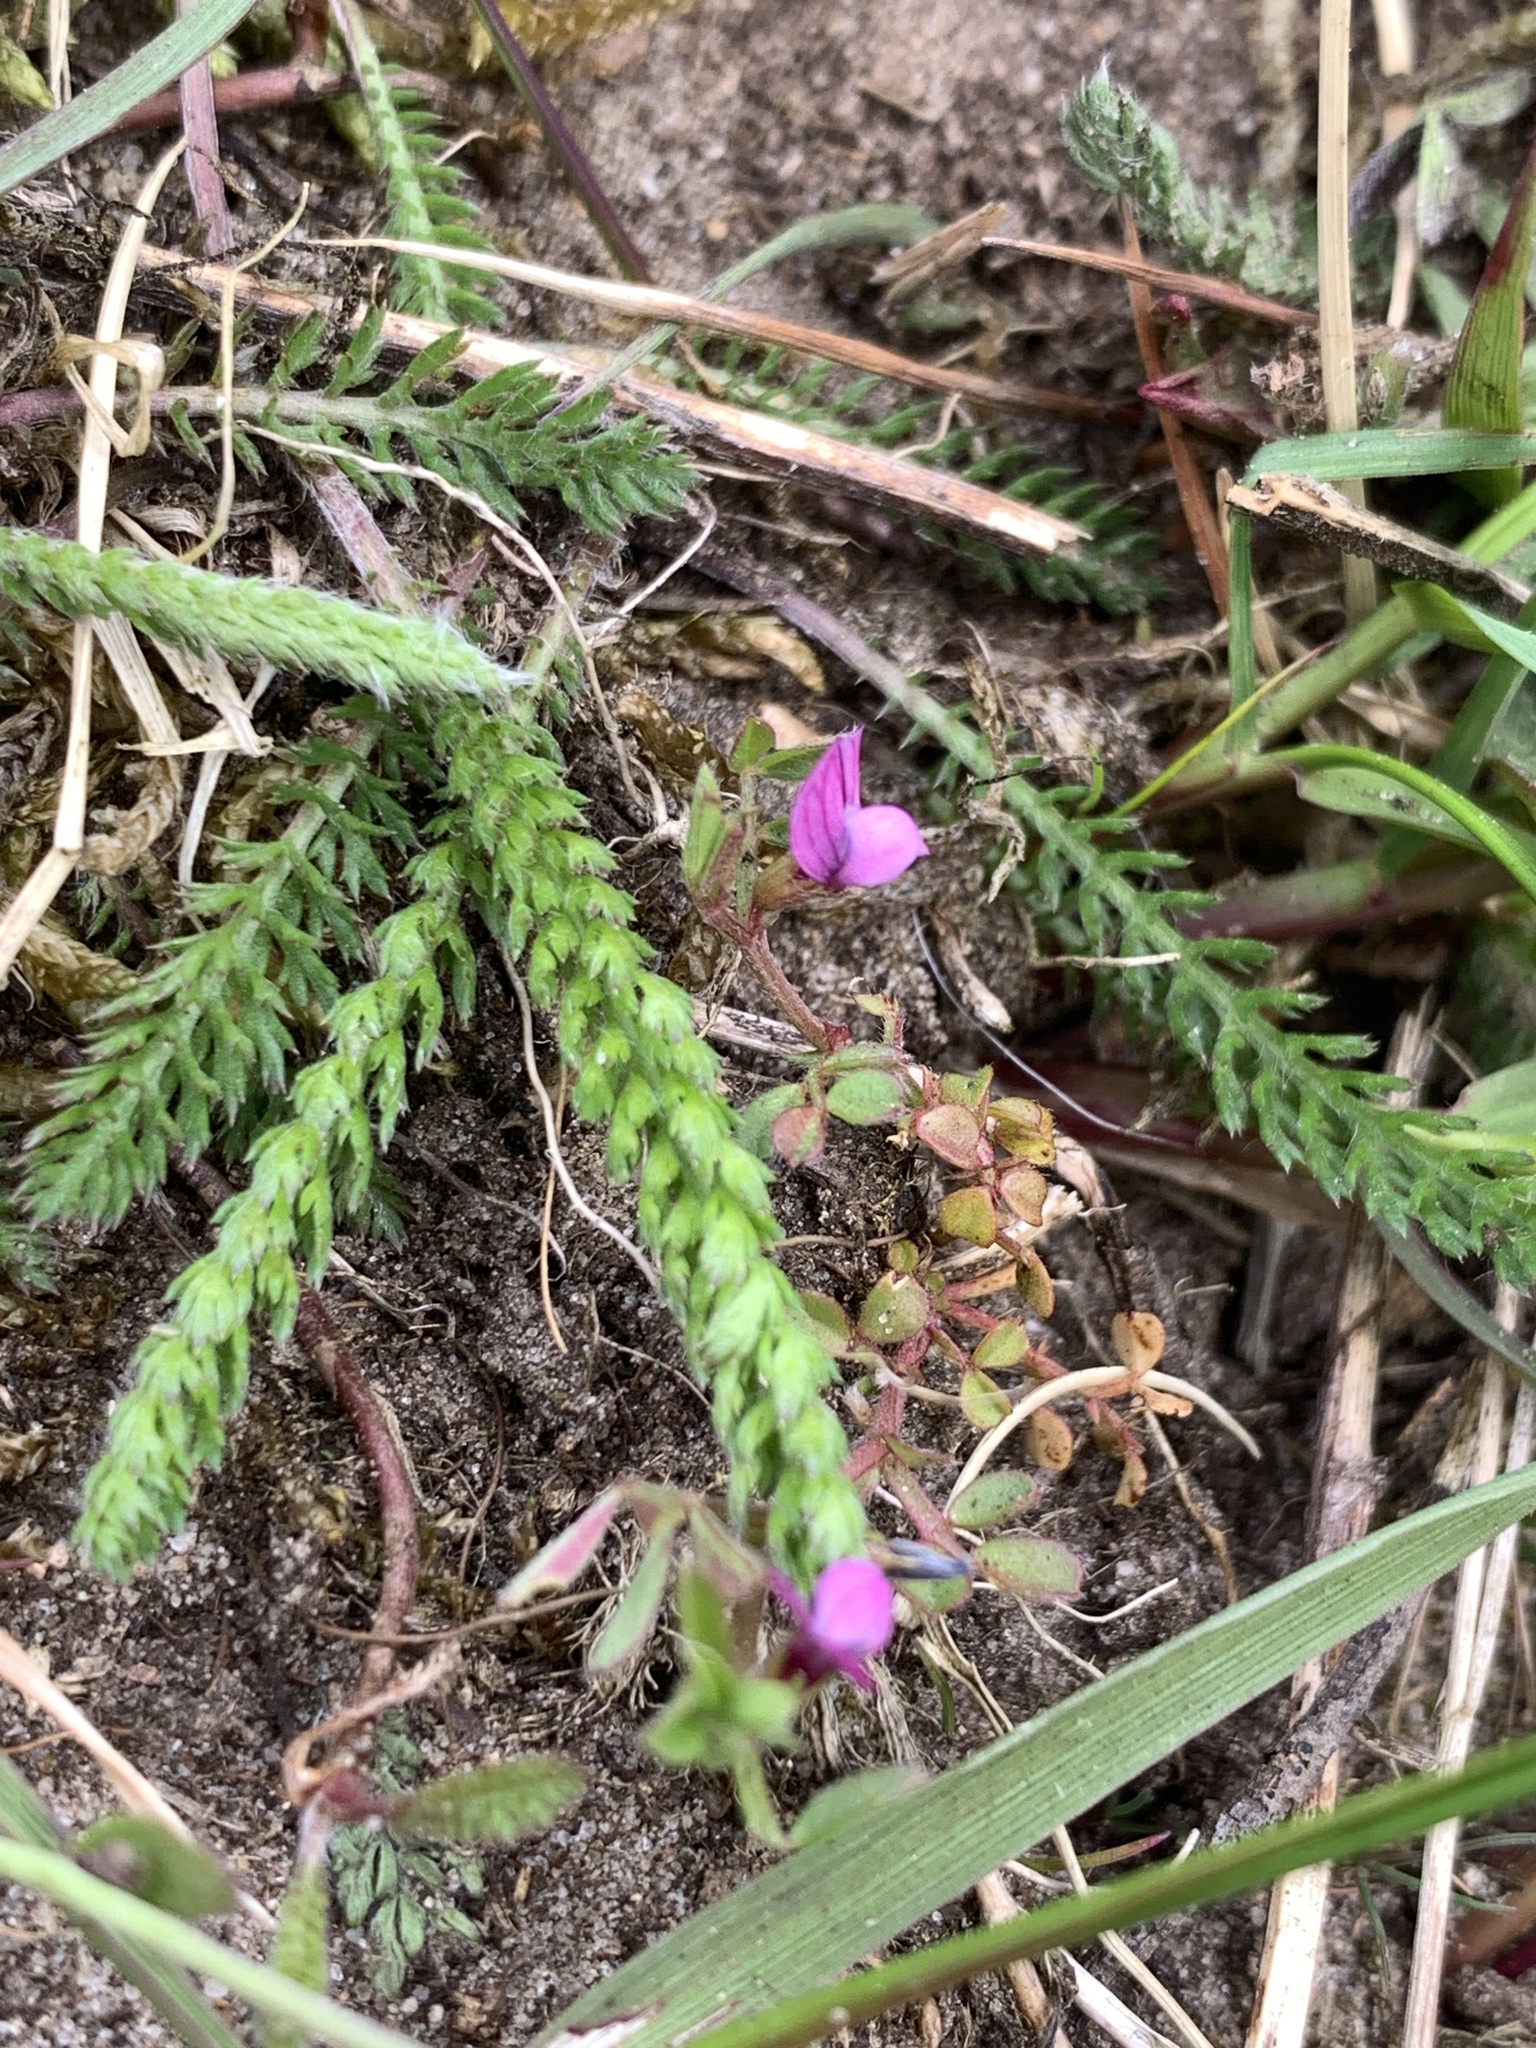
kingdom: Plantae
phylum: Tracheophyta
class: Magnoliopsida
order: Fabales
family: Fabaceae
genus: Vicia
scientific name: Vicia lathyroides
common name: Spring vetch
